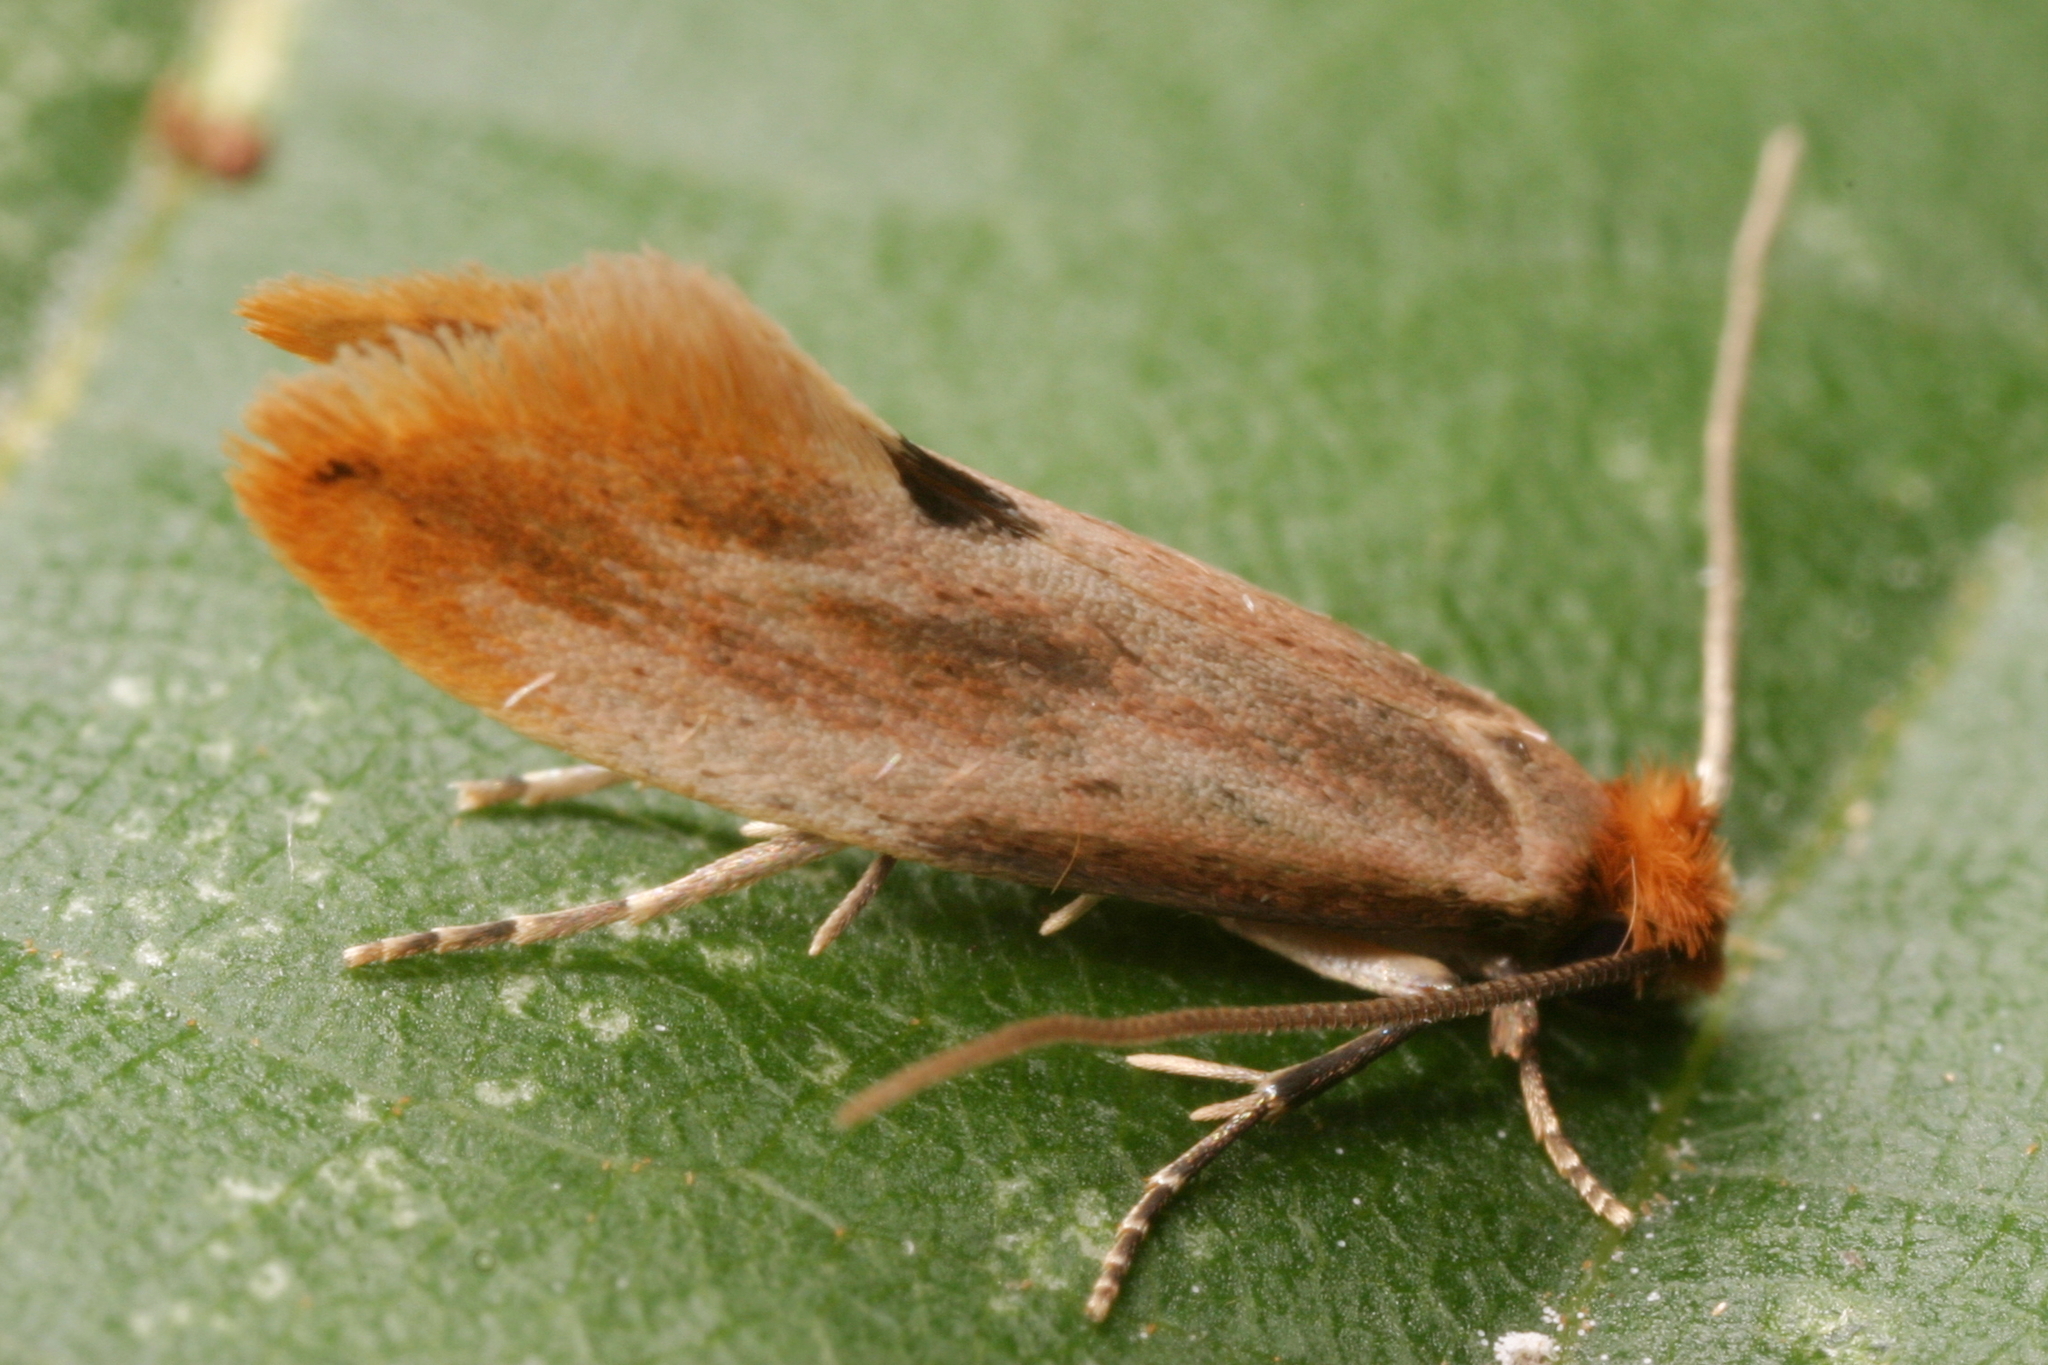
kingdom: Animalia
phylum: Arthropoda
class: Insecta
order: Lepidoptera
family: Tineidae
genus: Tinea
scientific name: Tinea semifulvella
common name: Fulvous clothes
